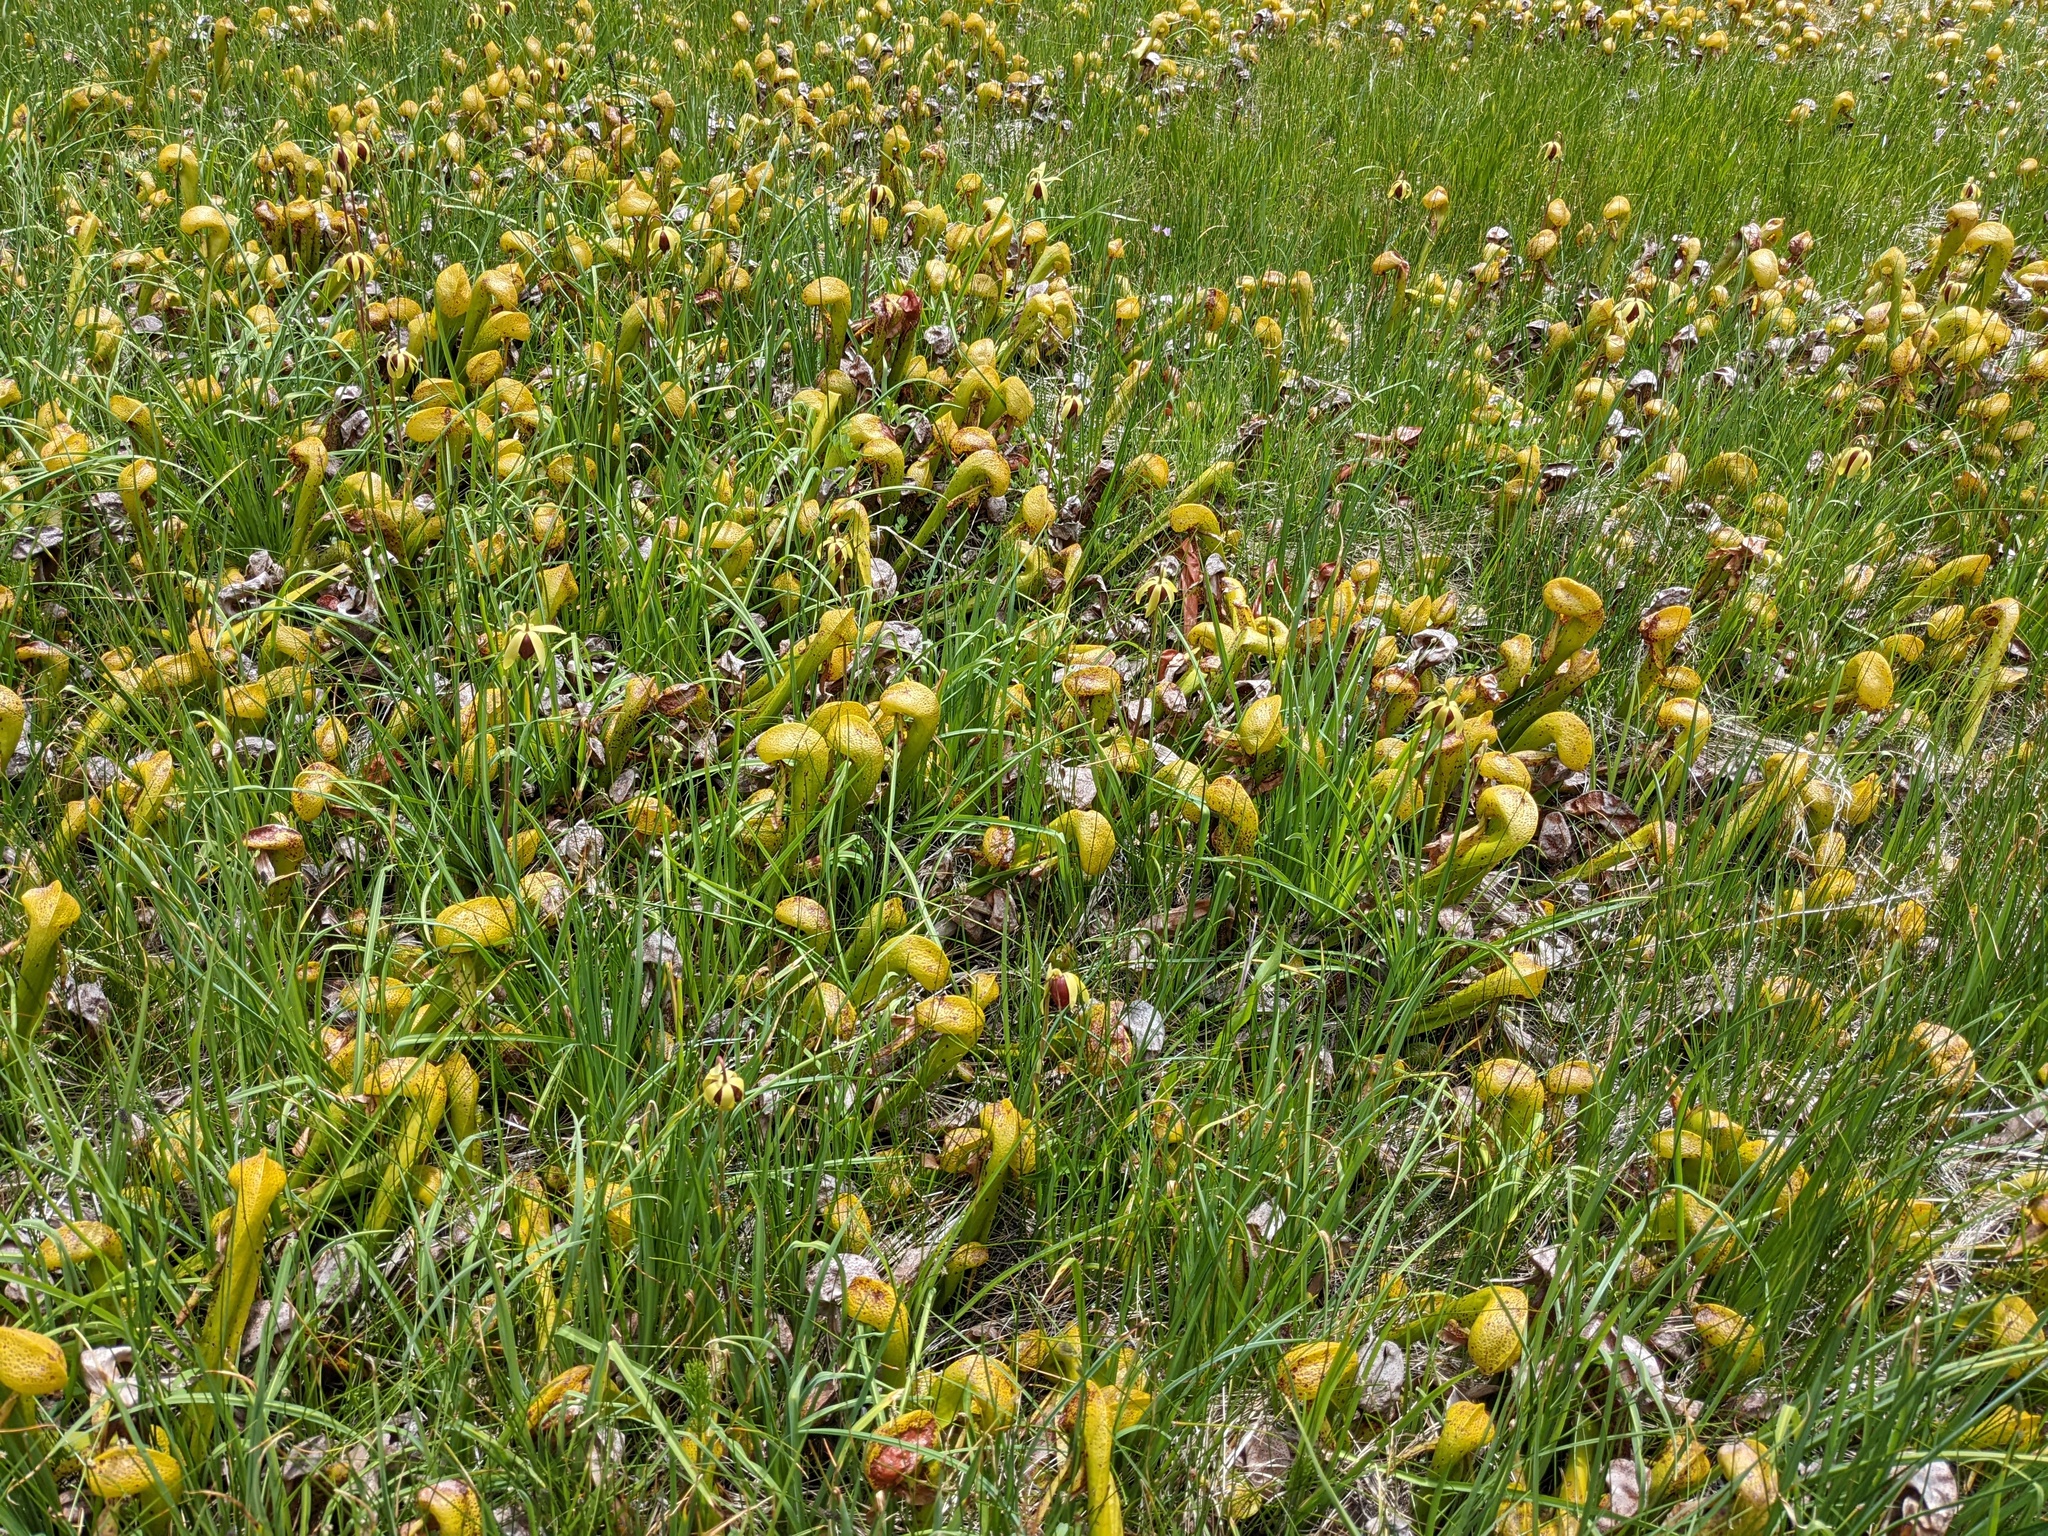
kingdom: Plantae
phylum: Tracheophyta
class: Magnoliopsida
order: Ericales
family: Sarraceniaceae
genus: Darlingtonia
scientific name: Darlingtonia californica
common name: California pitcher plant
